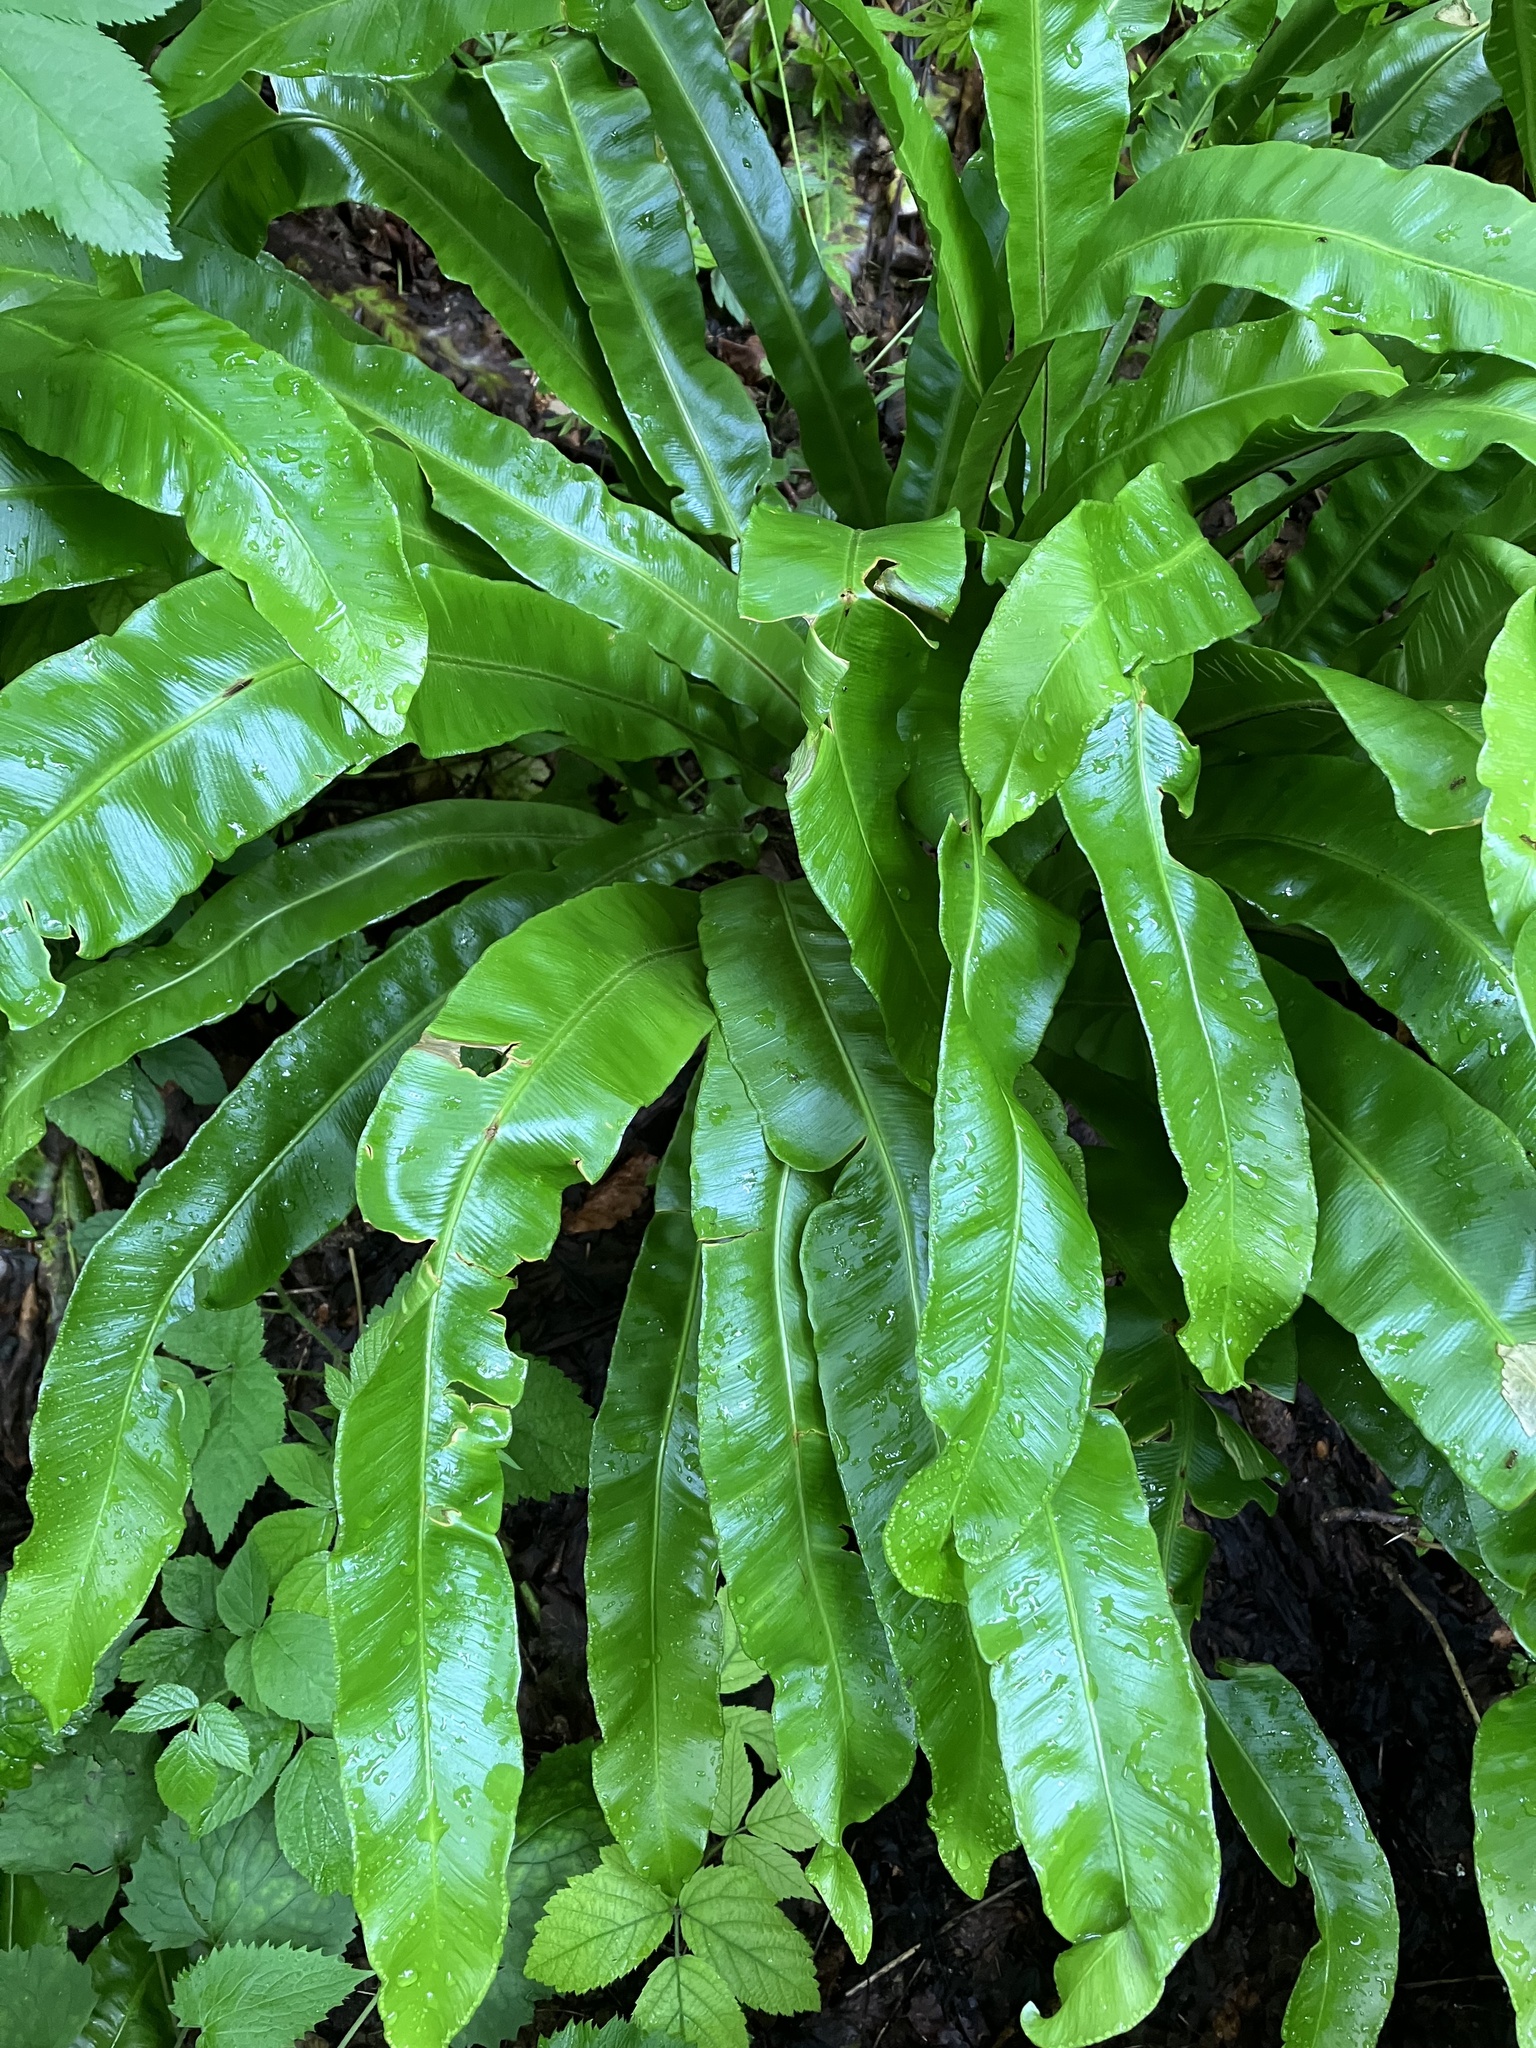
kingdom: Plantae
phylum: Tracheophyta
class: Polypodiopsida
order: Polypodiales
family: Aspleniaceae
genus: Asplenium
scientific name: Asplenium scolopendrium
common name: Hart's-tongue fern
